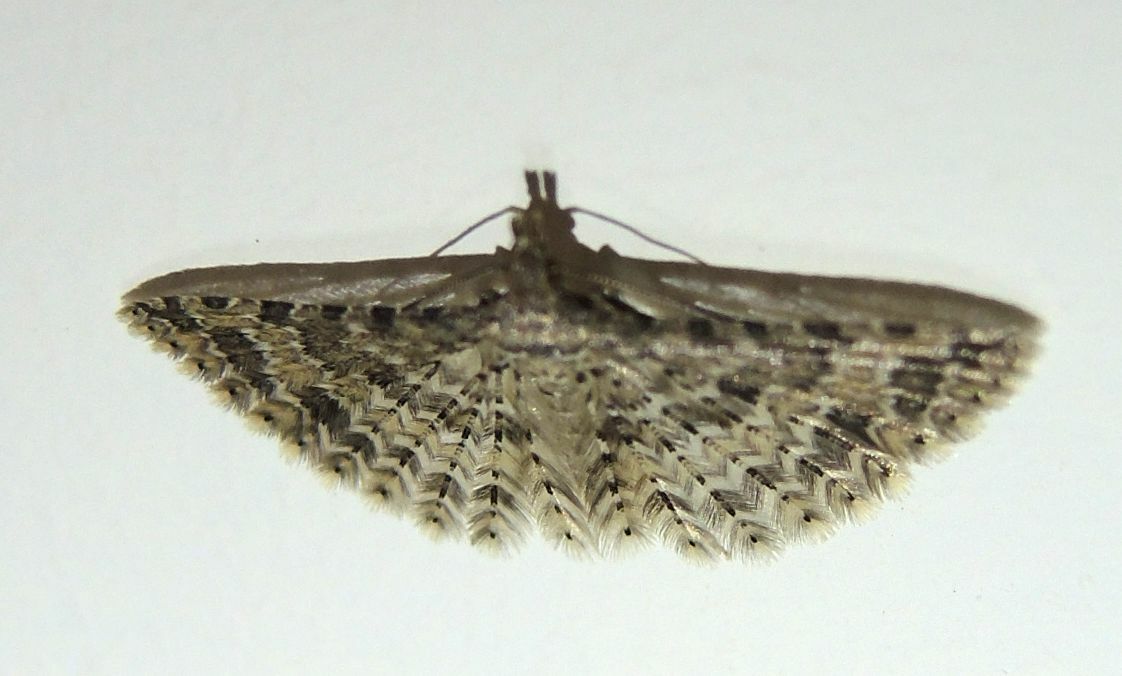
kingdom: Animalia
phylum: Arthropoda
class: Insecta
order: Lepidoptera
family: Alucitidae
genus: Alucita
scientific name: Alucita
